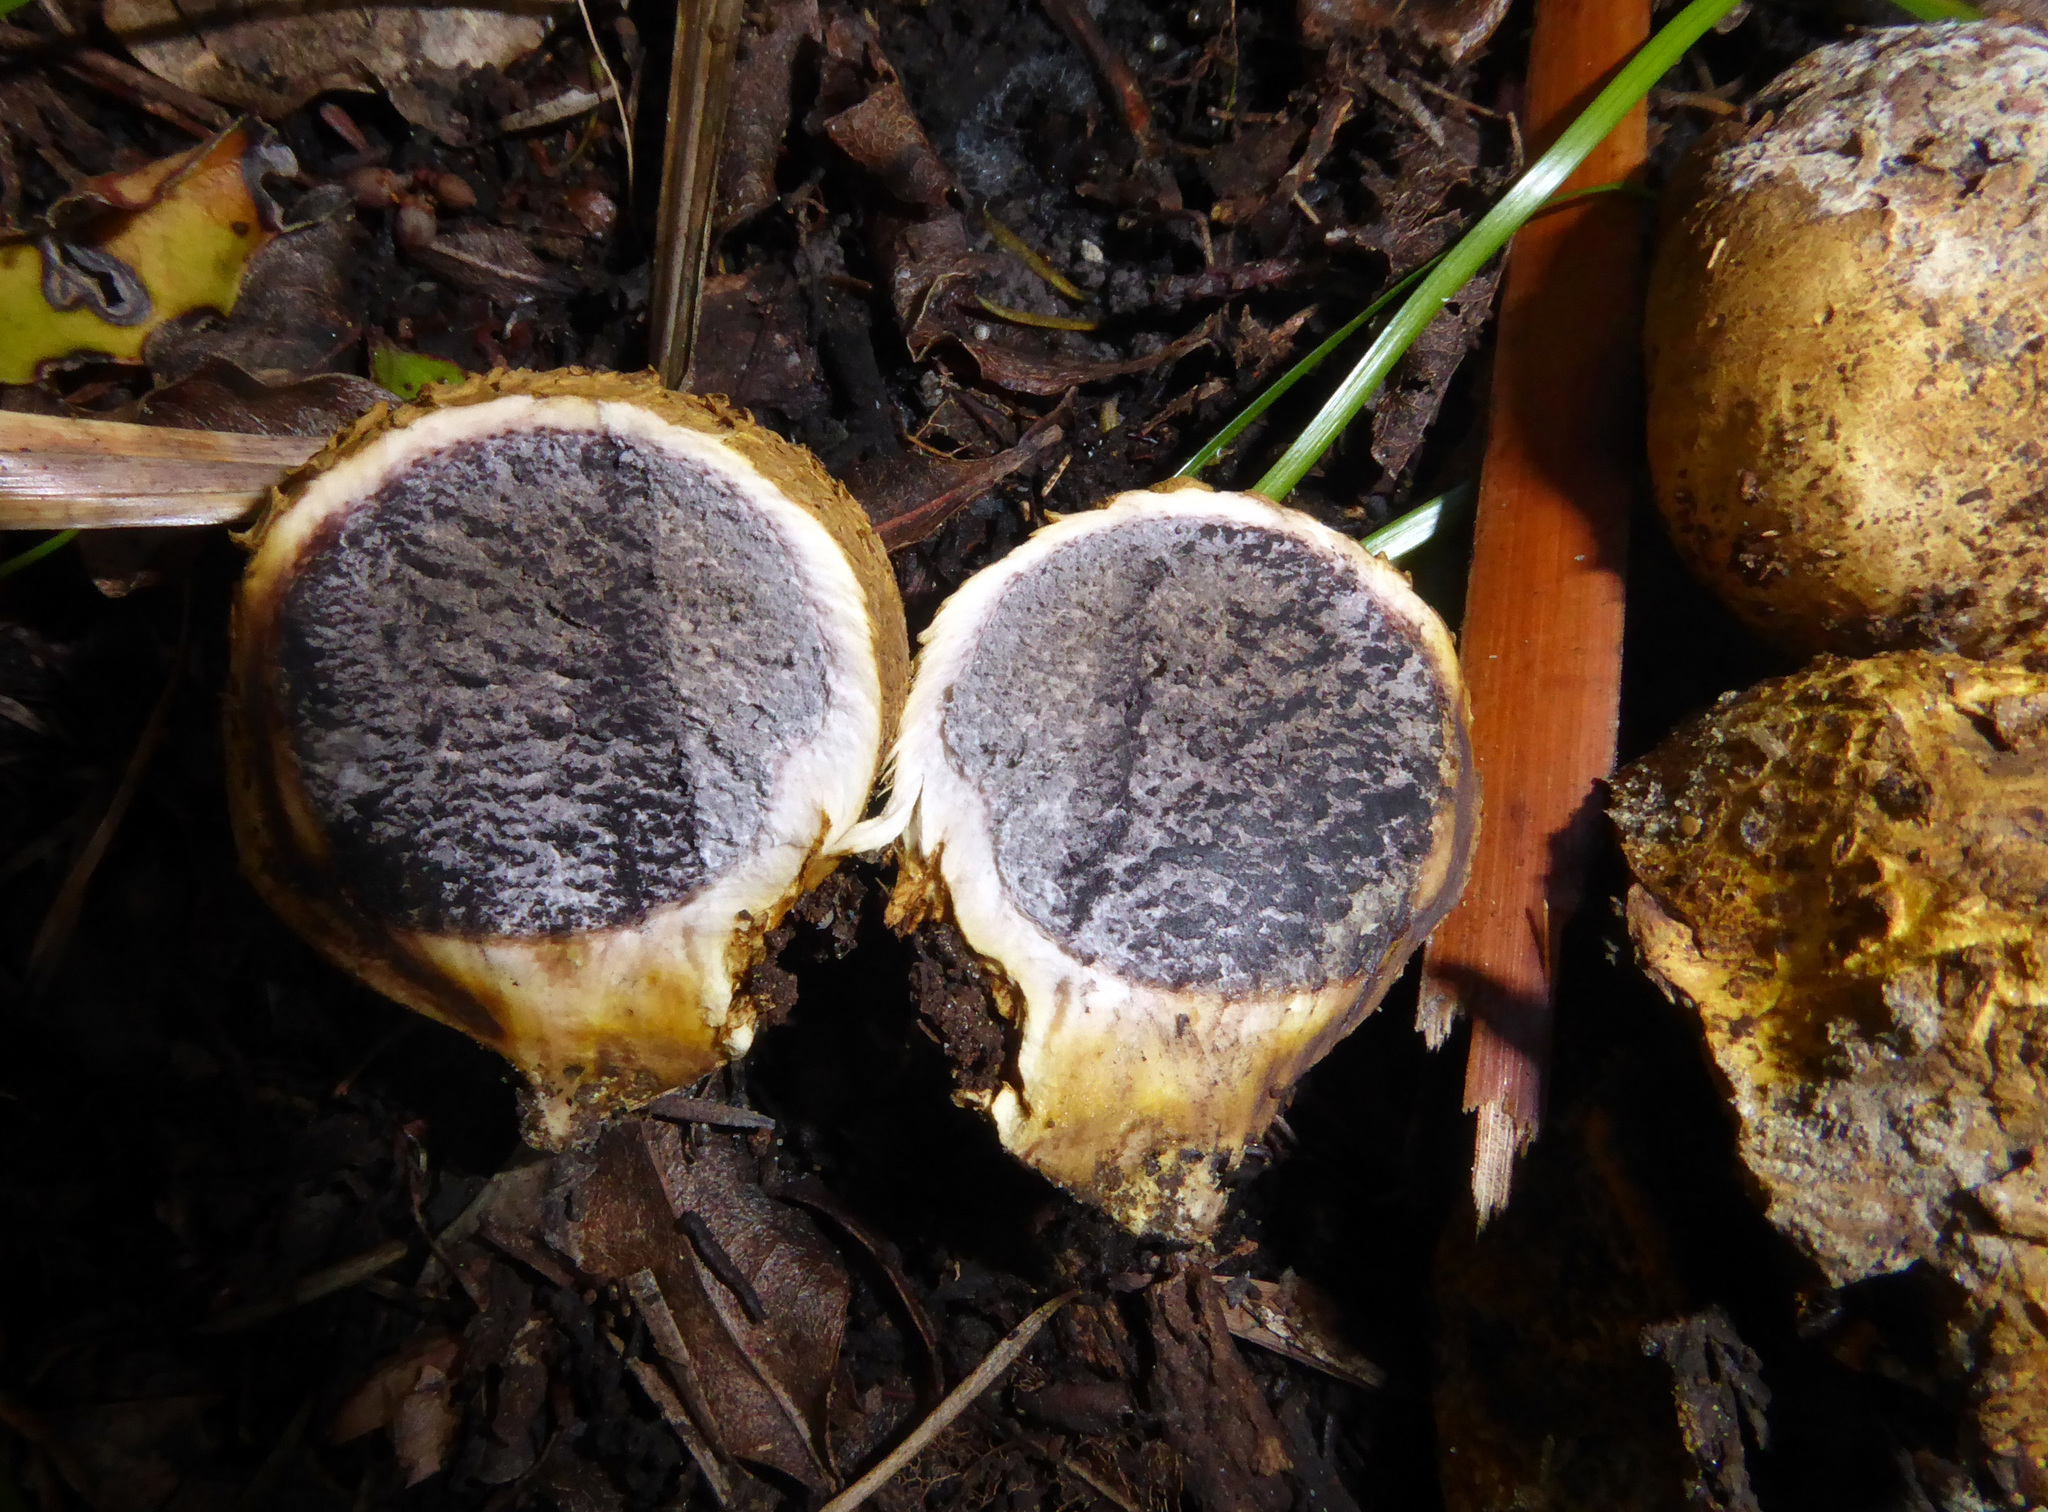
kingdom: Fungi
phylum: Basidiomycota
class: Agaricomycetes
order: Boletales
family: Sclerodermataceae
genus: Scleroderma
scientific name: Scleroderma
